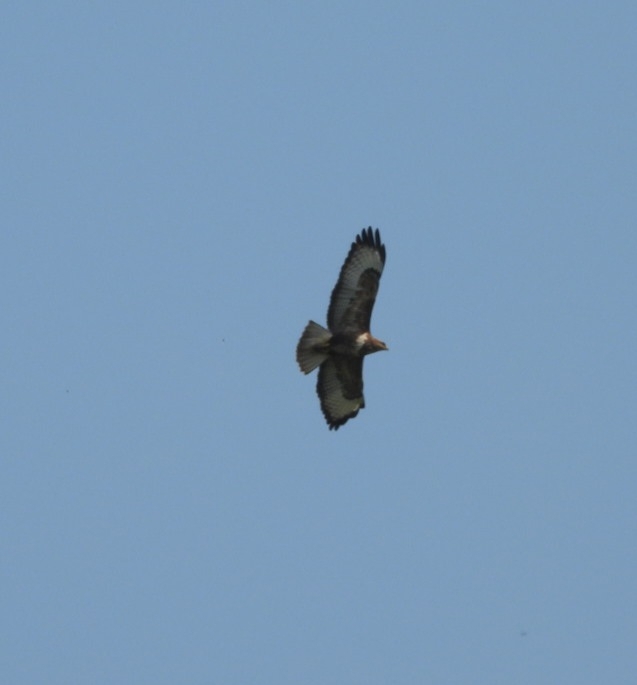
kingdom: Animalia
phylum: Chordata
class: Aves
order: Accipitriformes
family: Accipitridae
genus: Buteo
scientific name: Buteo buteo
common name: Common buzzard
